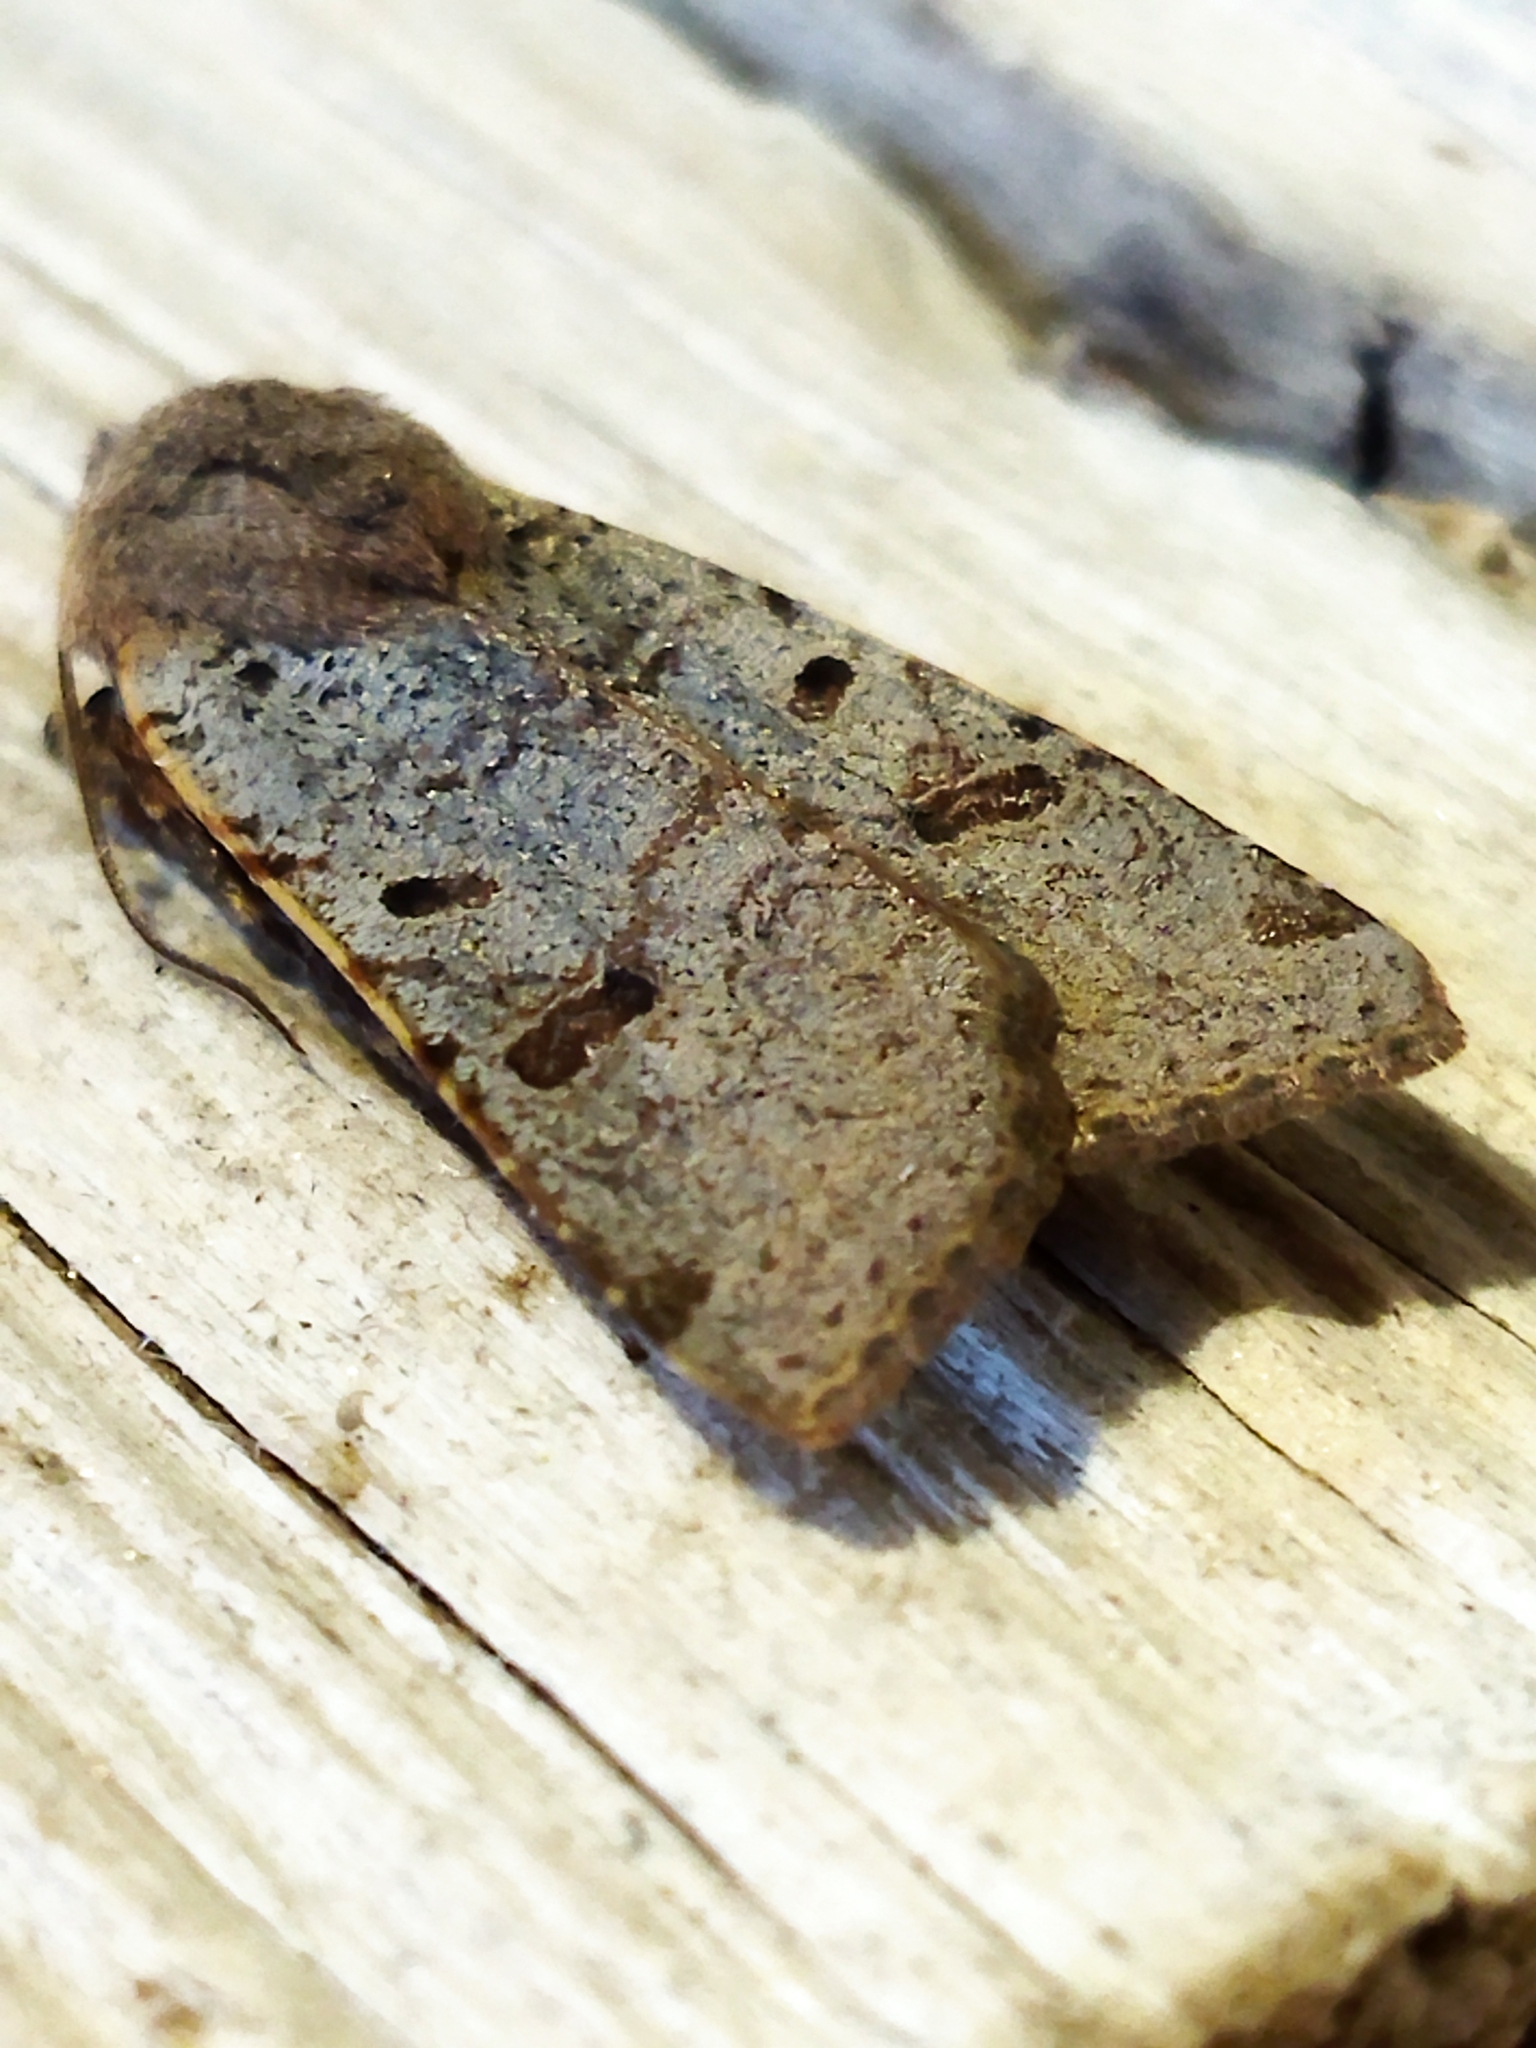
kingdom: Animalia
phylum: Arthropoda
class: Insecta
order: Lepidoptera
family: Noctuidae
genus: Agrochola
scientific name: Agrochola lychnidis
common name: Beaded chestnut
